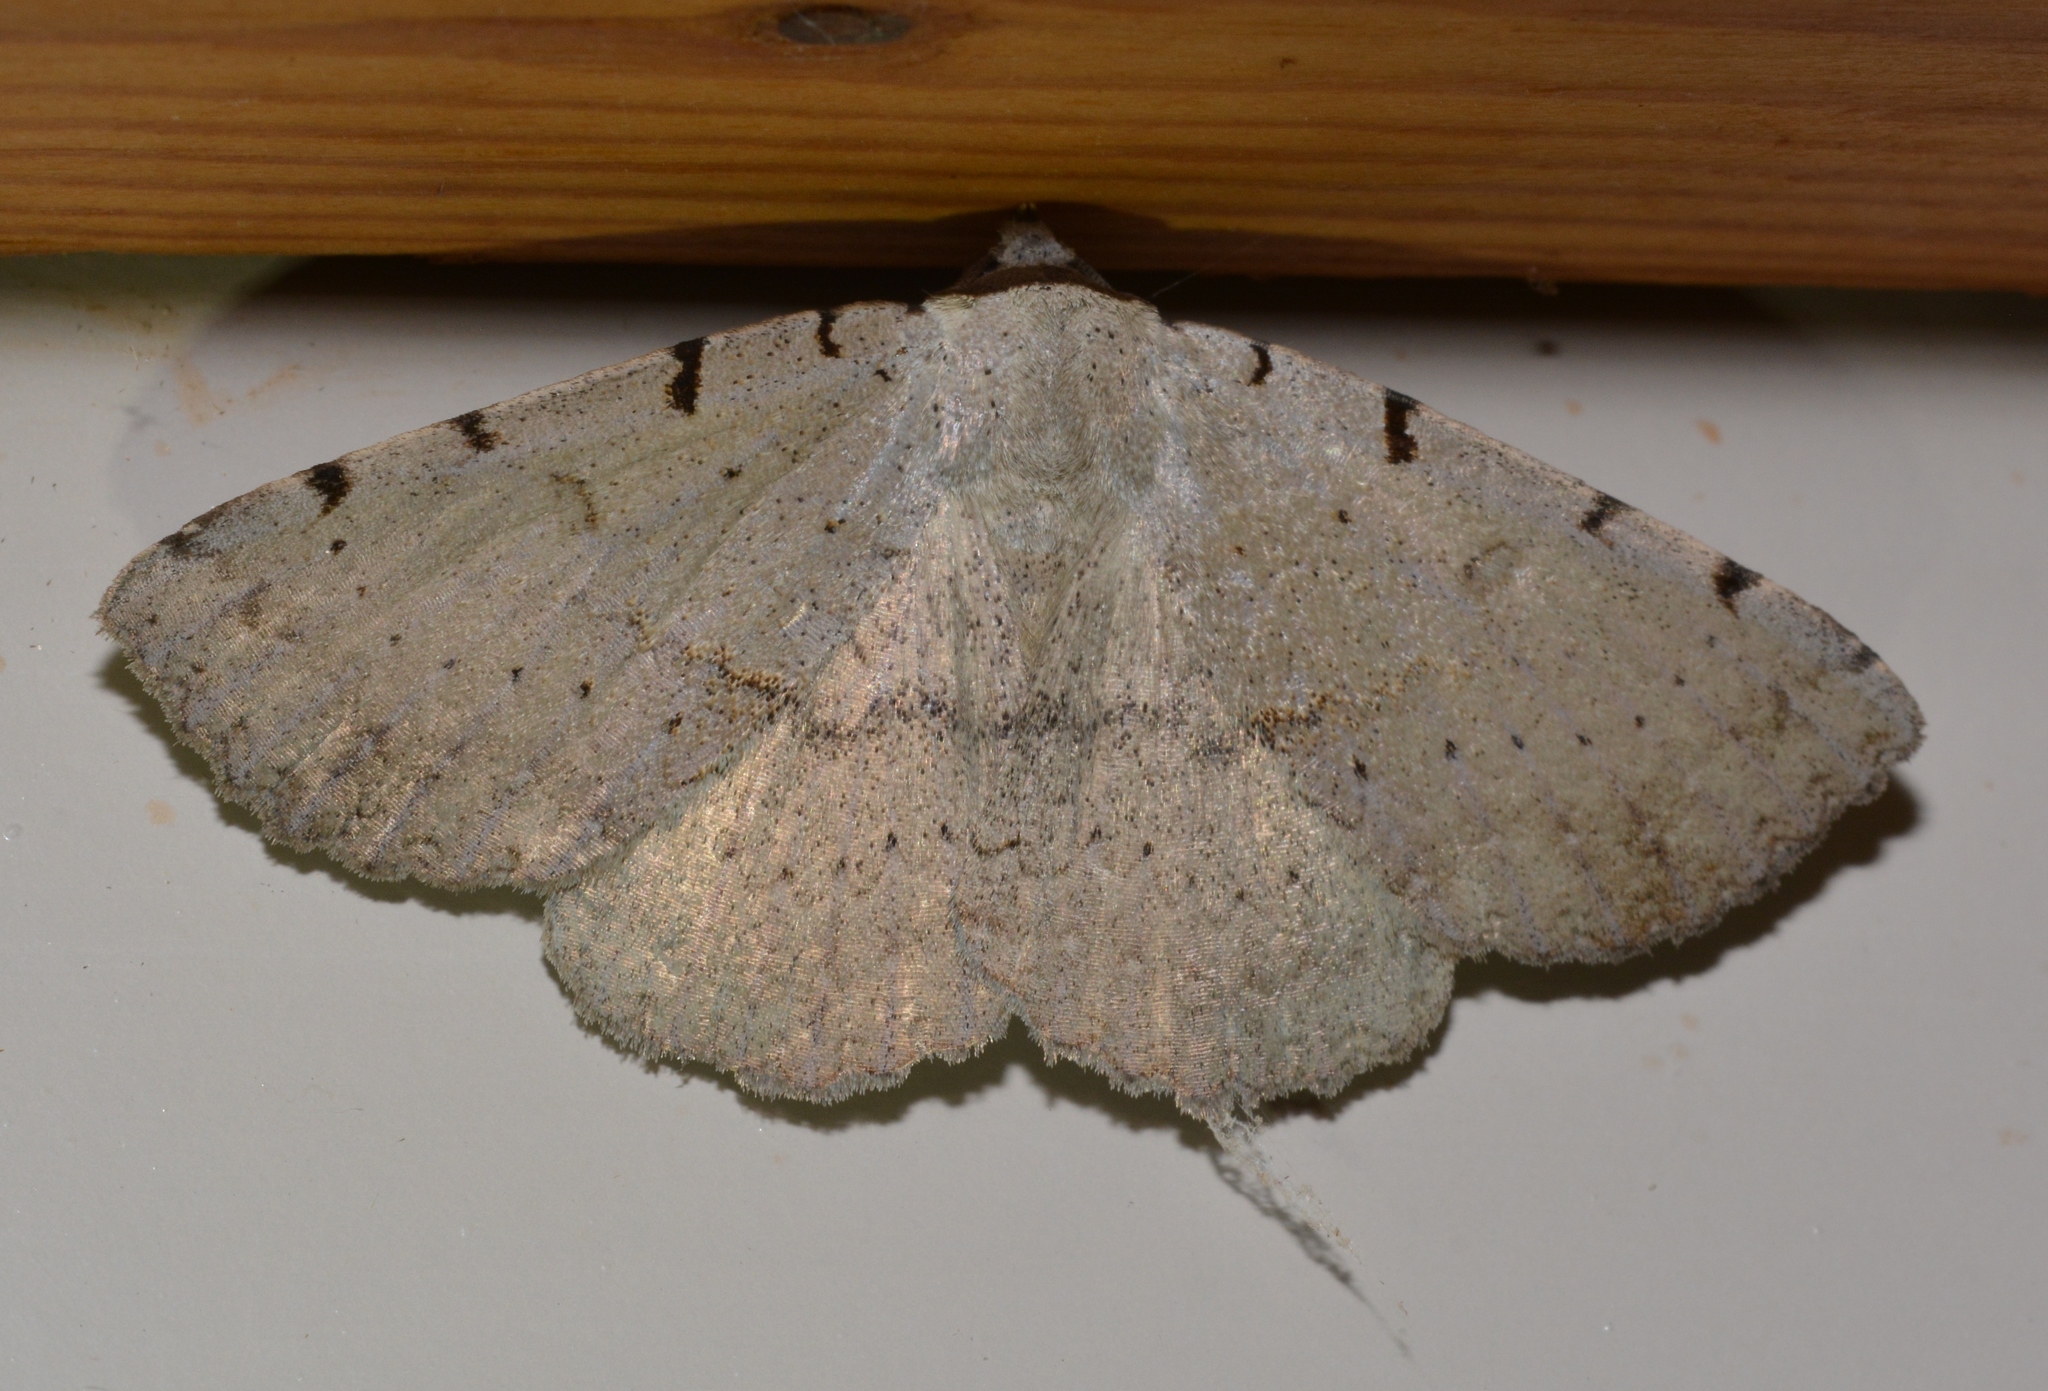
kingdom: Animalia
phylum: Arthropoda
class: Insecta
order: Lepidoptera
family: Erebidae
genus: Spiloloma
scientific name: Spiloloma lunilinea
